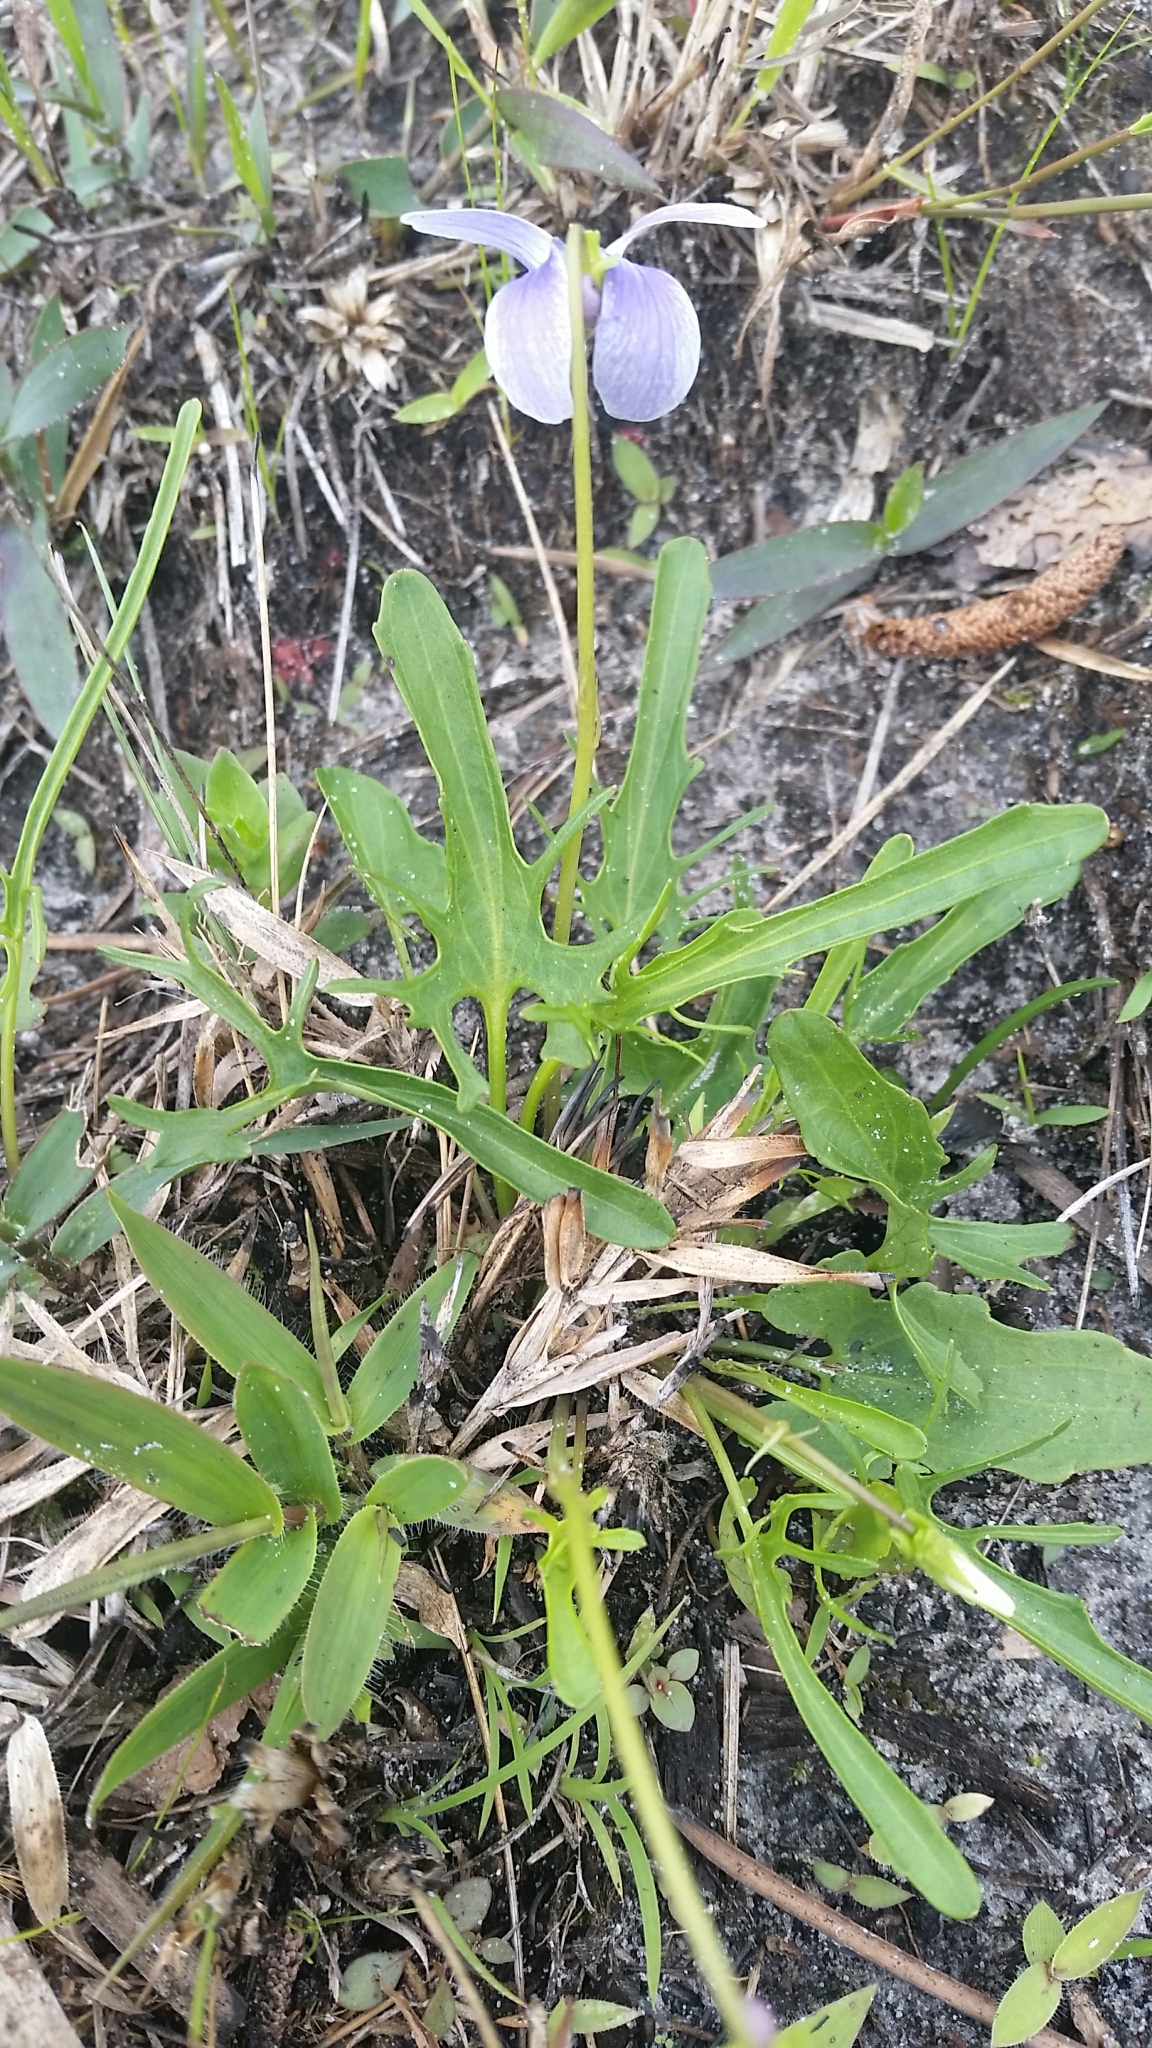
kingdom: Plantae
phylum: Tracheophyta
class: Magnoliopsida
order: Malpighiales
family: Violaceae
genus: Viola
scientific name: Viola septemloba
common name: Southern coast violet
